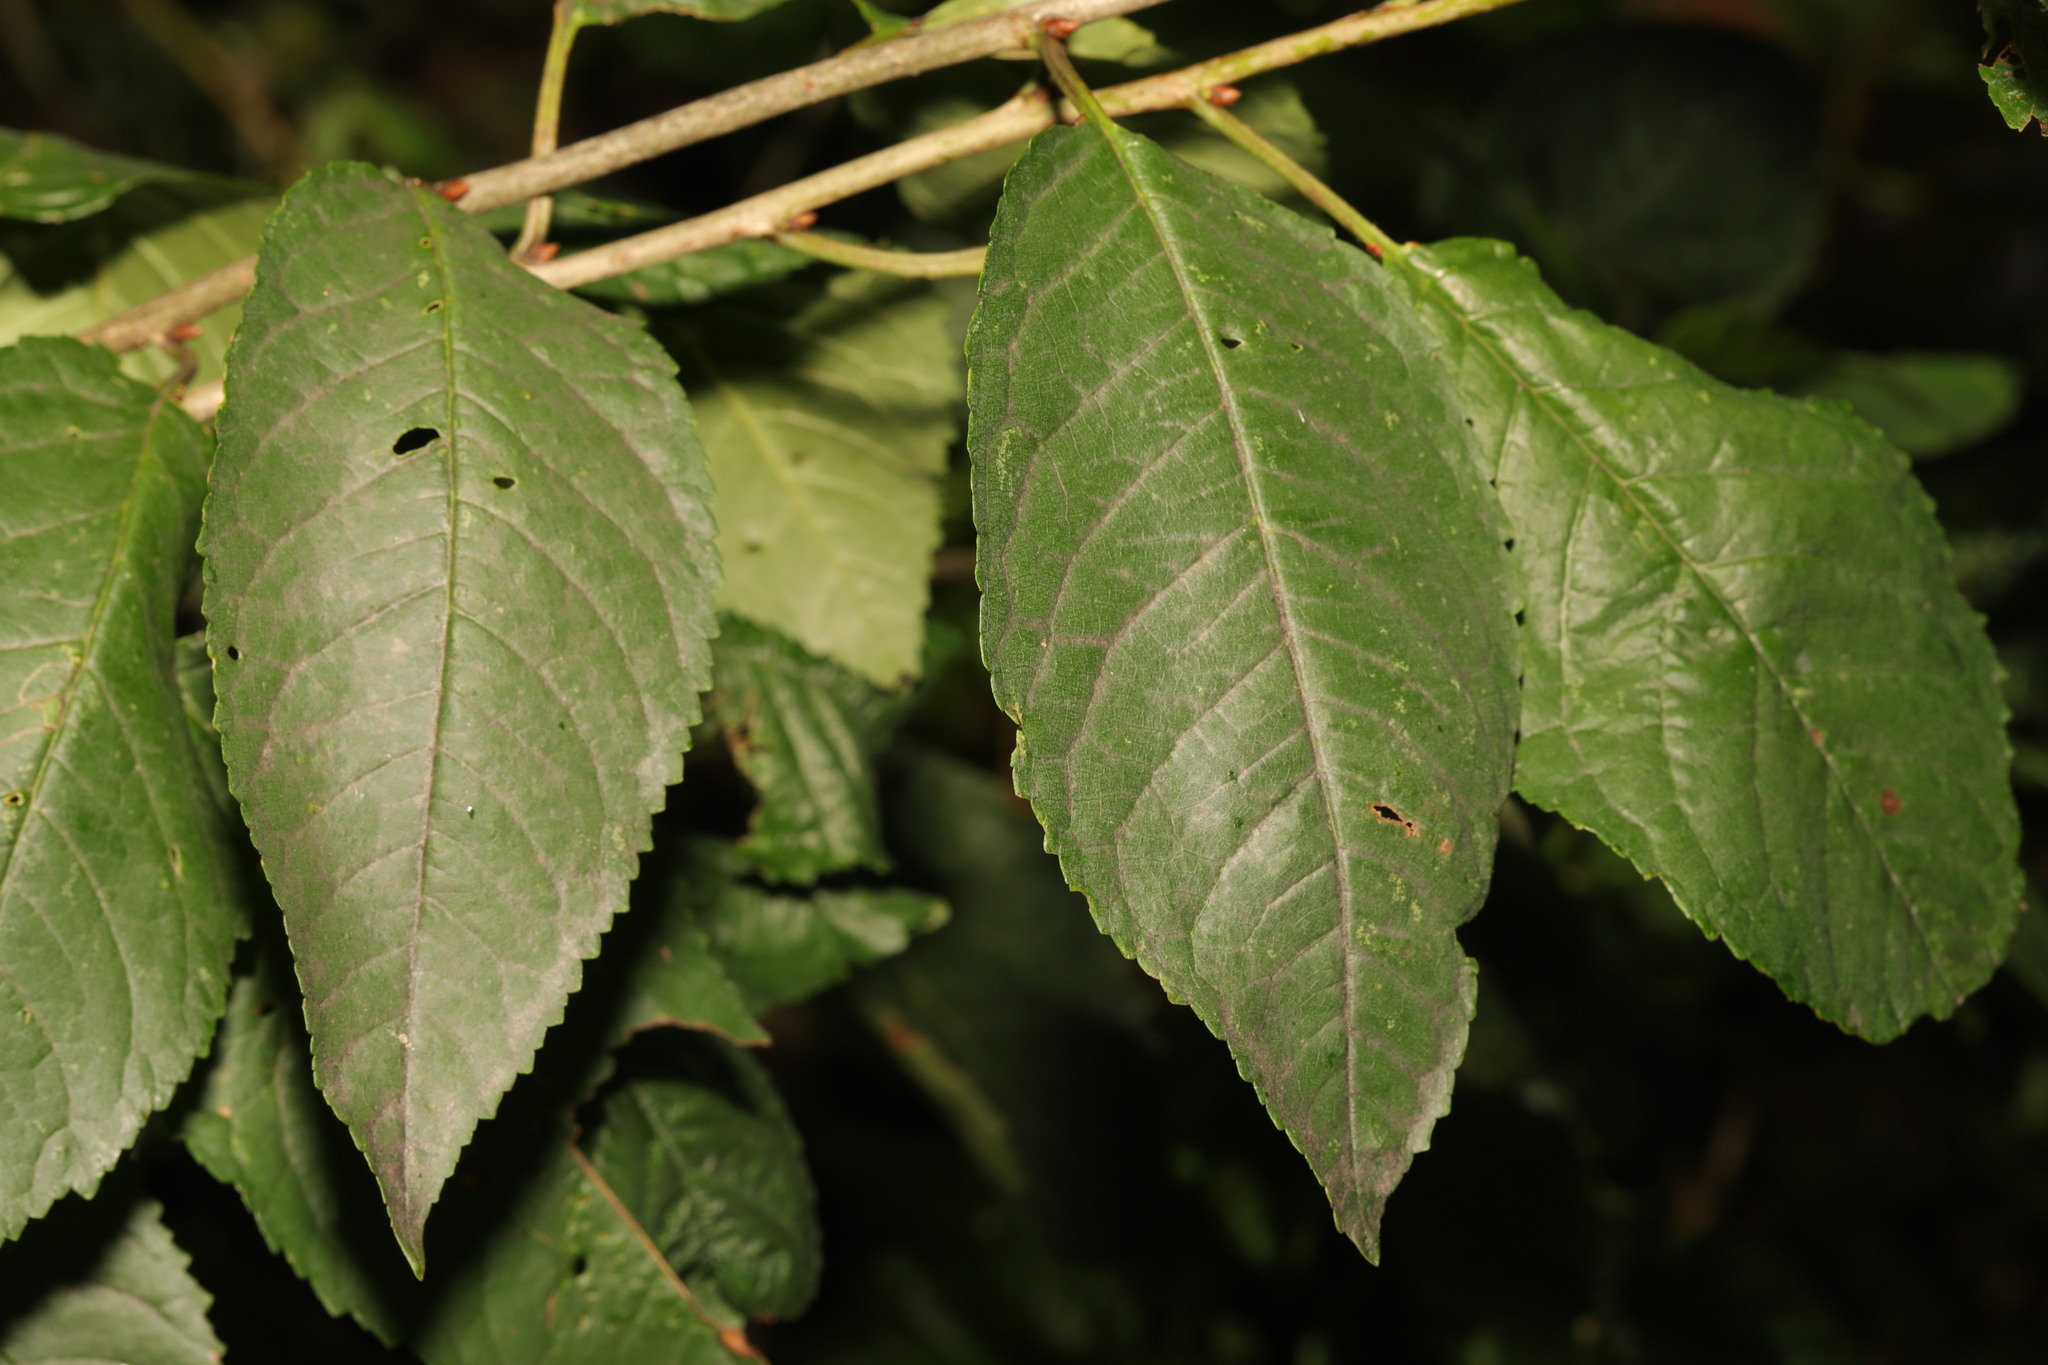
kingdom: Plantae
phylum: Tracheophyta
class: Magnoliopsida
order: Rosales
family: Rosaceae
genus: Prunus
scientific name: Prunus avium
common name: Sweet cherry
